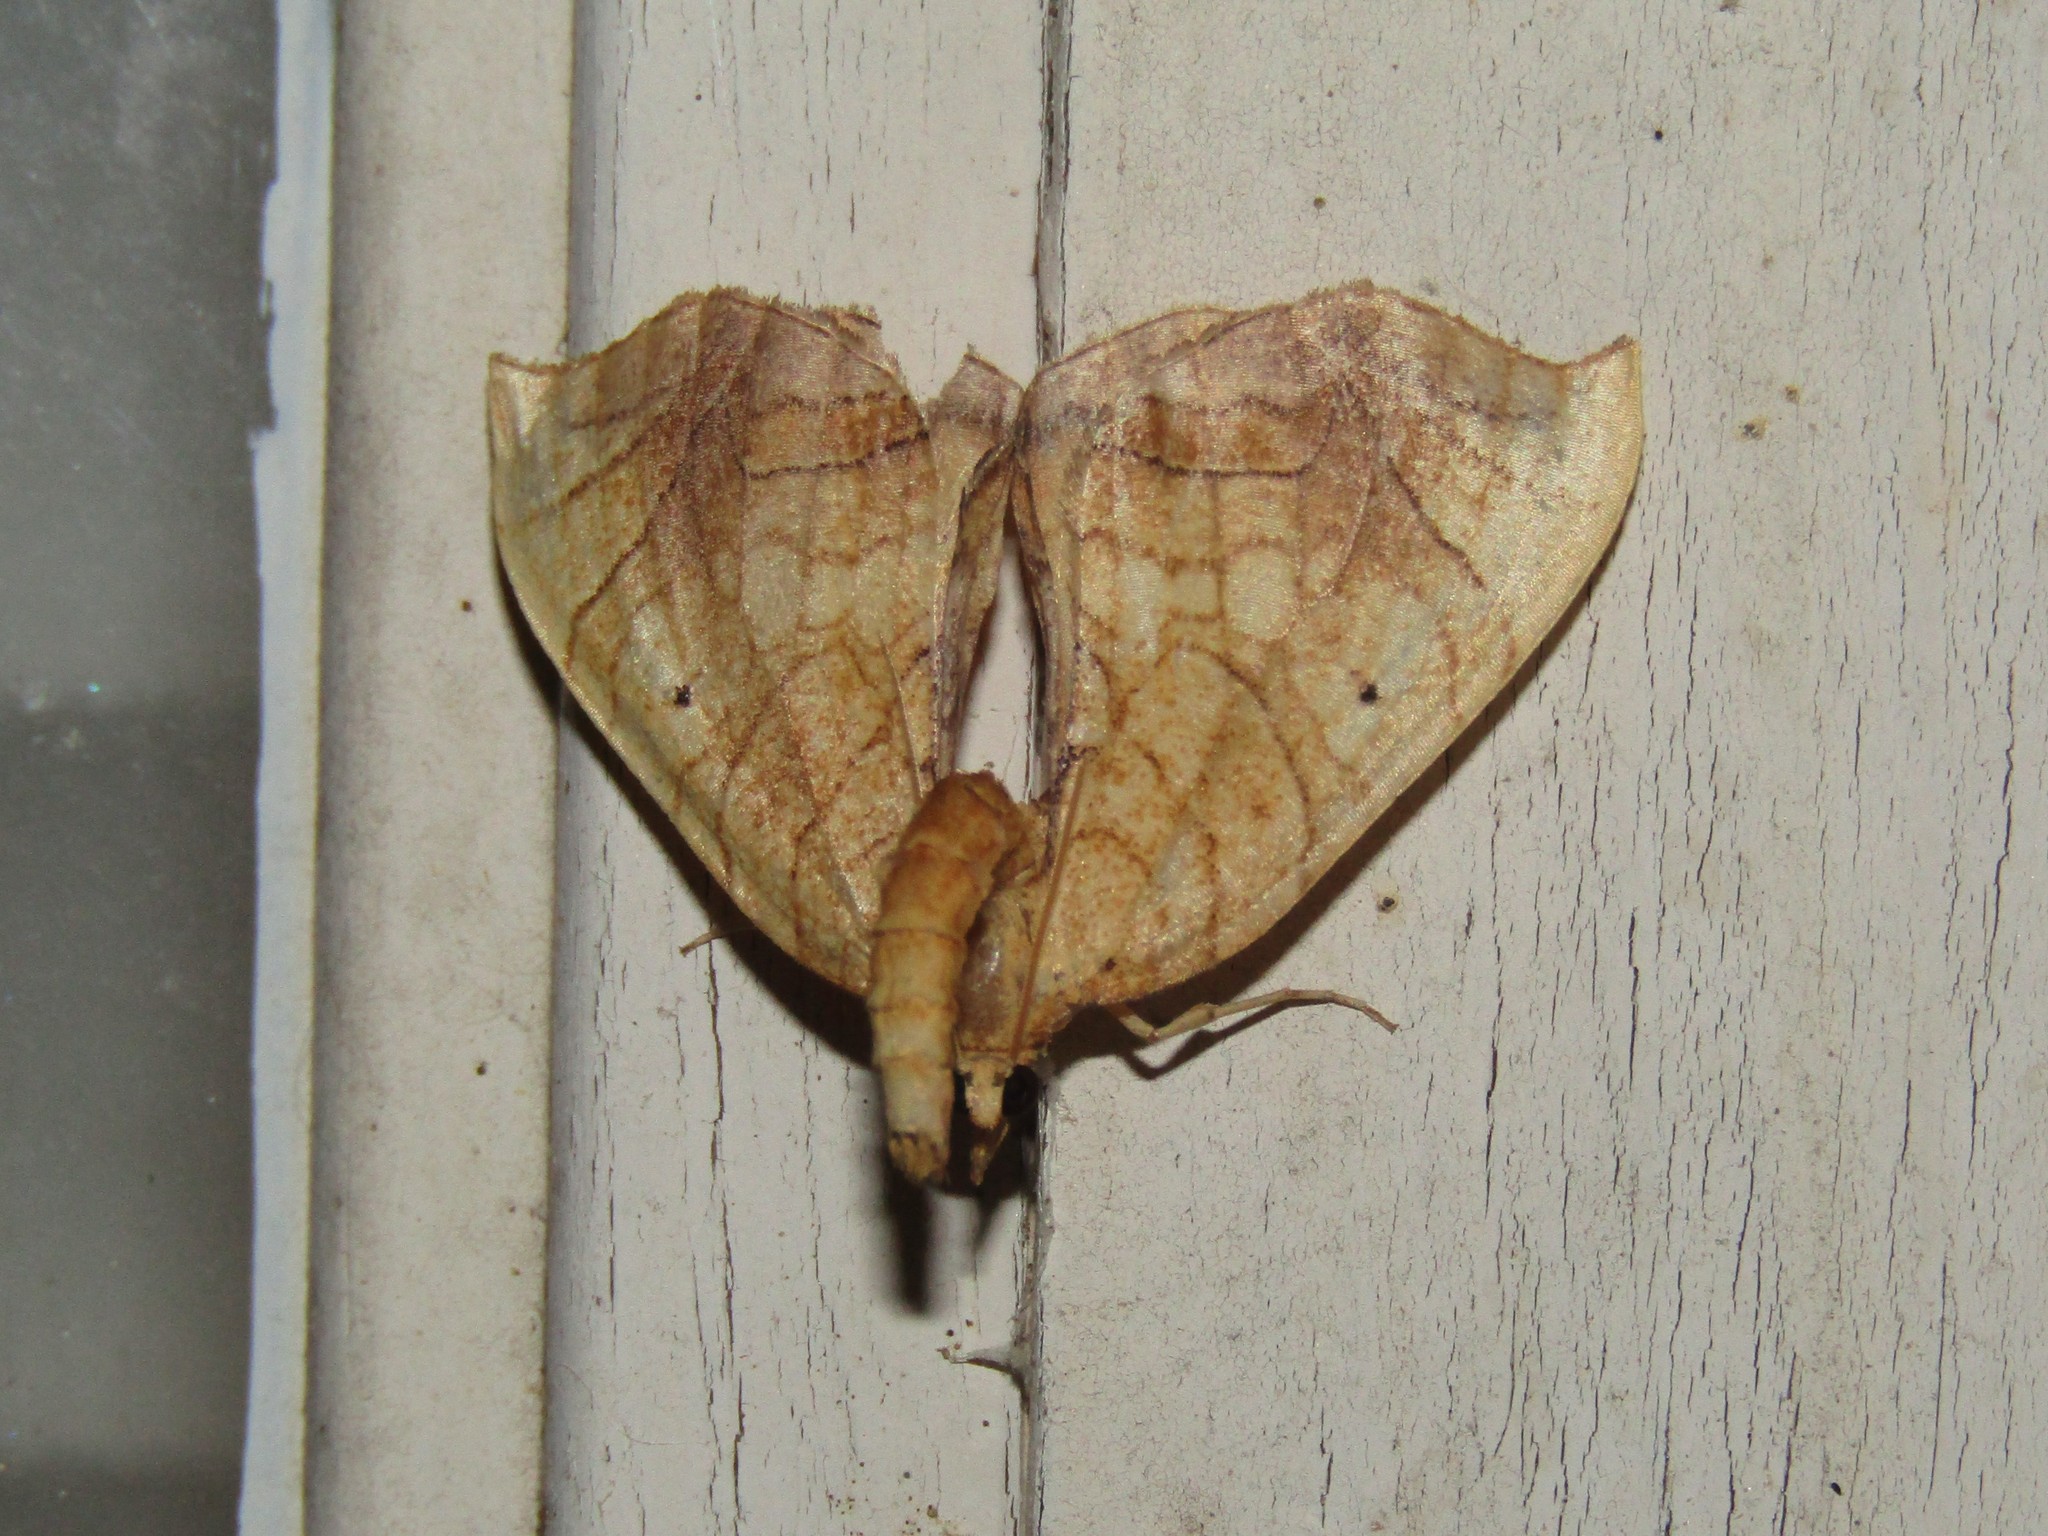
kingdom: Animalia
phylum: Arthropoda
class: Insecta
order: Lepidoptera
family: Geometridae
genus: Eulithis
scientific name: Eulithis
